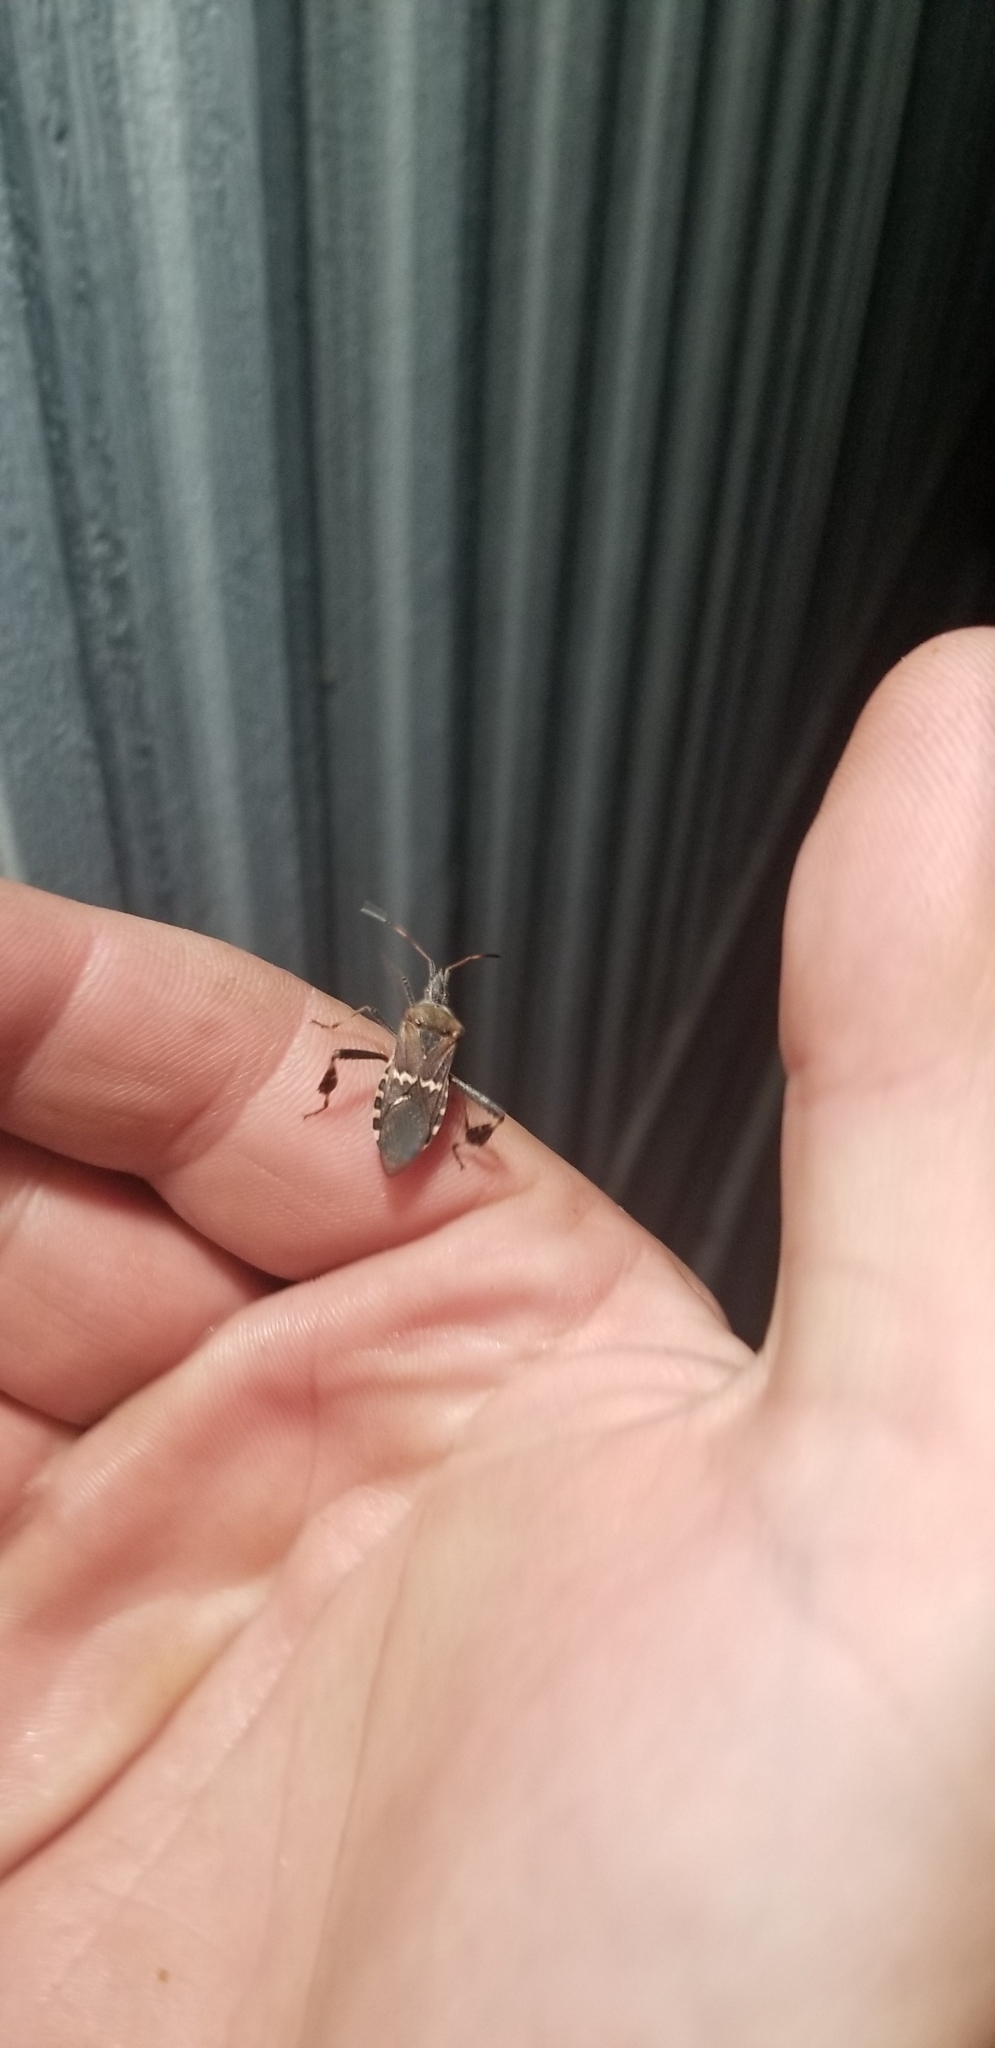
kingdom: Animalia
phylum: Arthropoda
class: Insecta
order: Hemiptera
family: Coreidae
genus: Leptoglossus
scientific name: Leptoglossus clypealis
